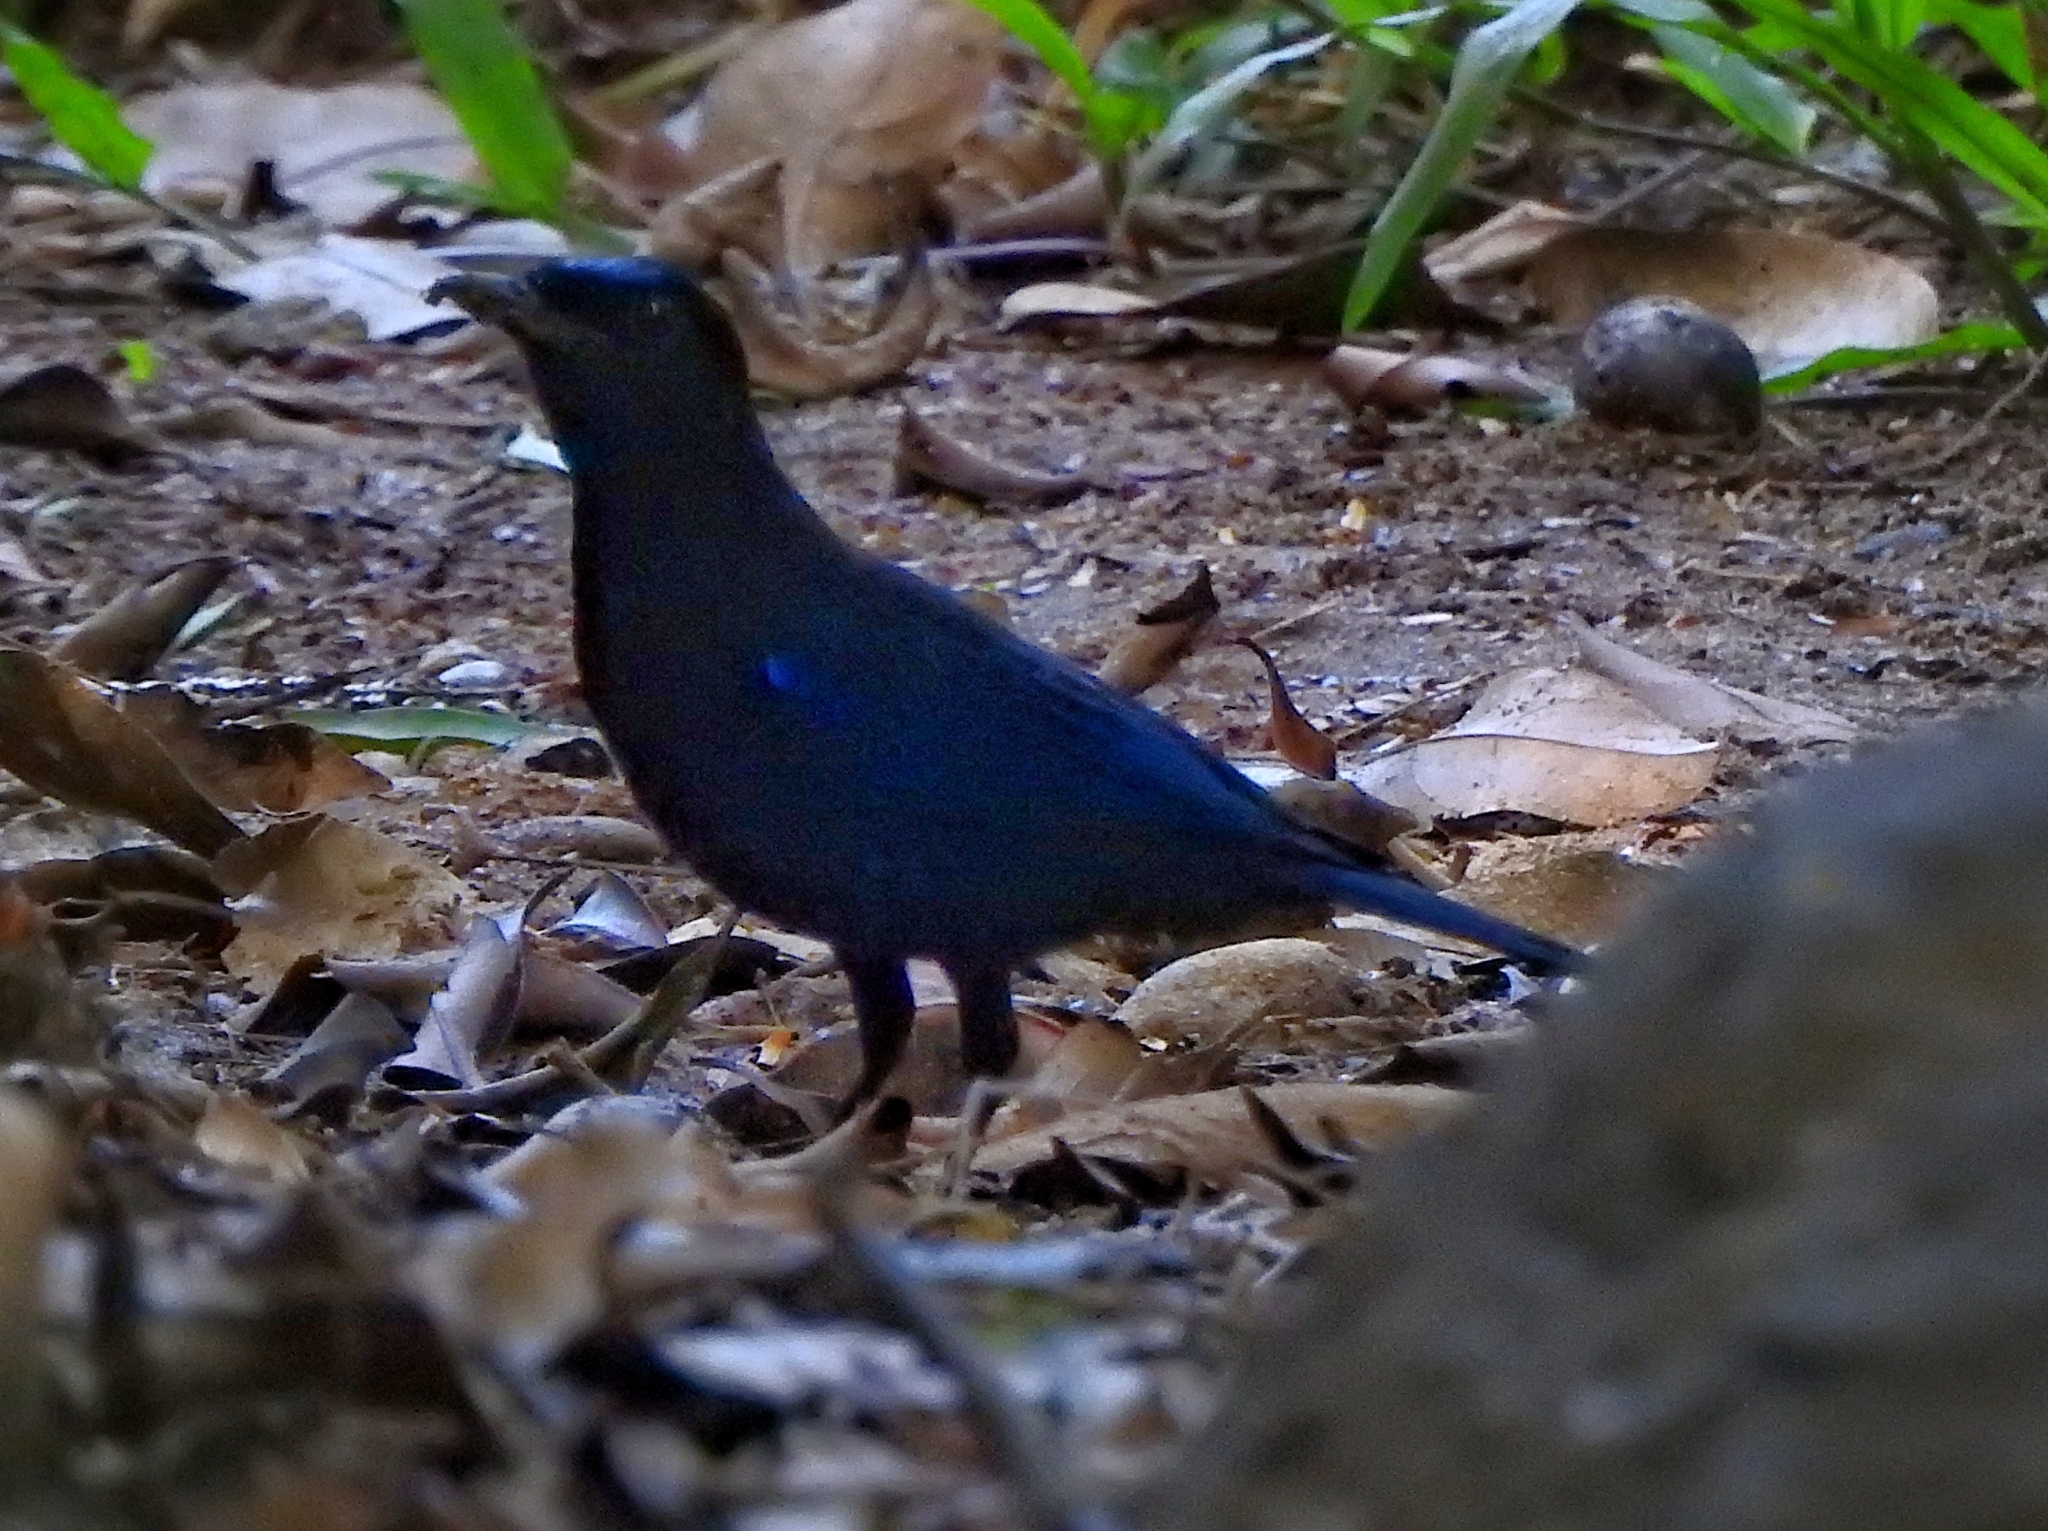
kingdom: Animalia
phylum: Chordata
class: Aves
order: Passeriformes
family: Muscicapidae
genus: Myophonus
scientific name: Myophonus horsfieldii
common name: Malabar whistling-thrush
